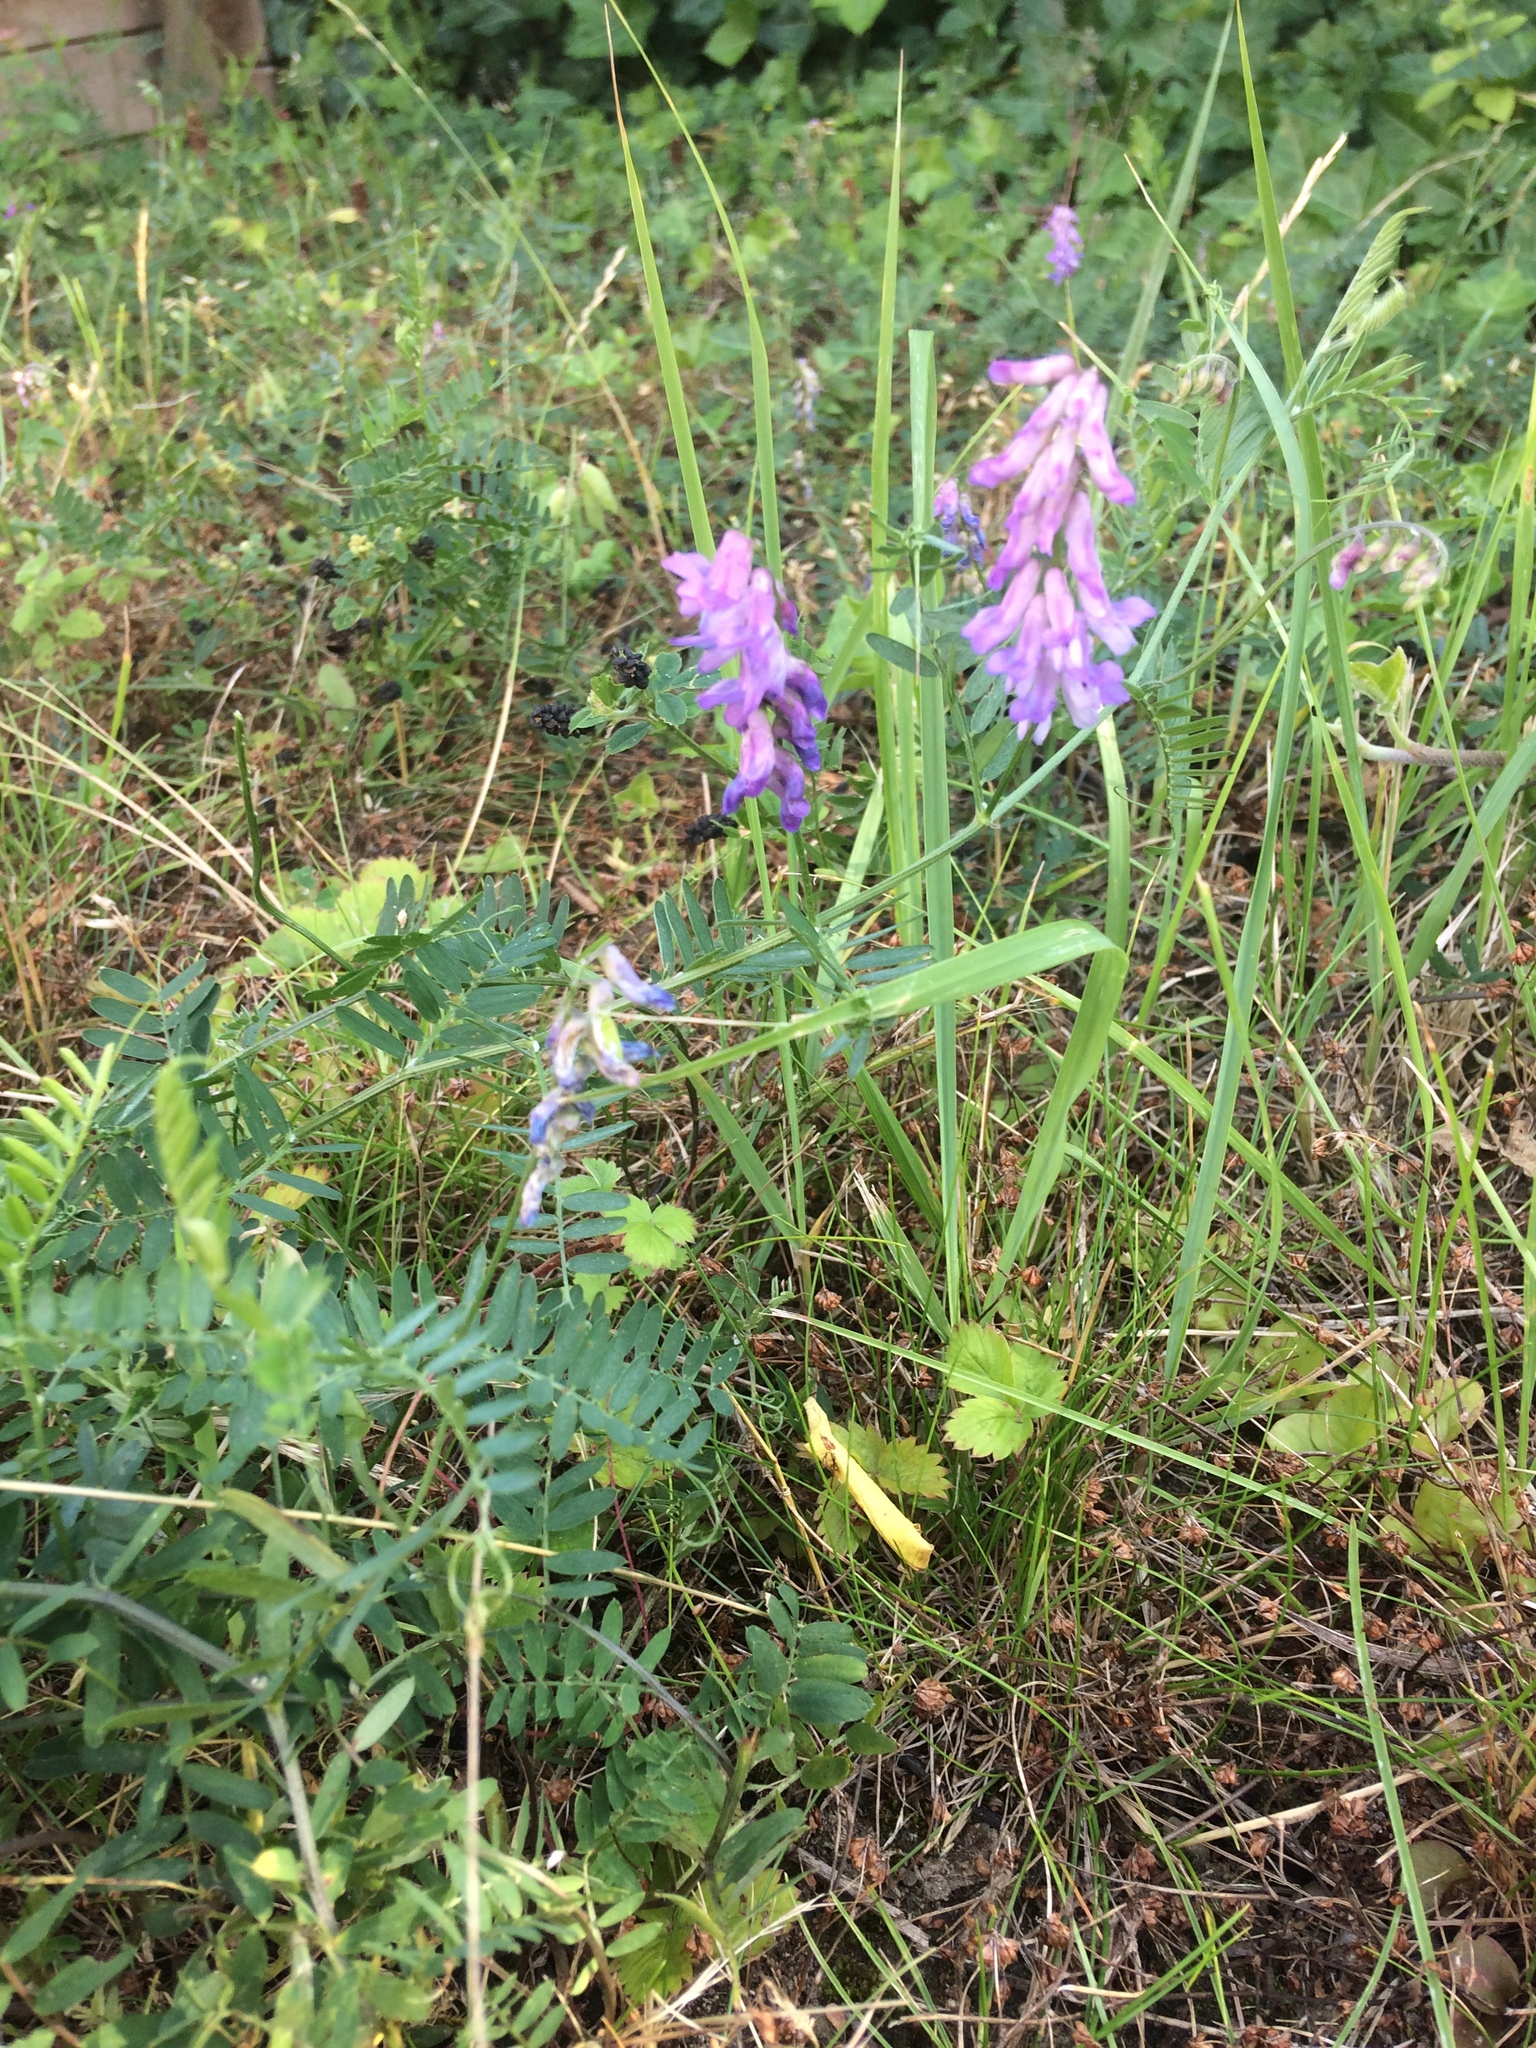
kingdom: Plantae
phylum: Tracheophyta
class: Magnoliopsida
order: Fabales
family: Fabaceae
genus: Vicia
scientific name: Vicia cracca
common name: Bird vetch
